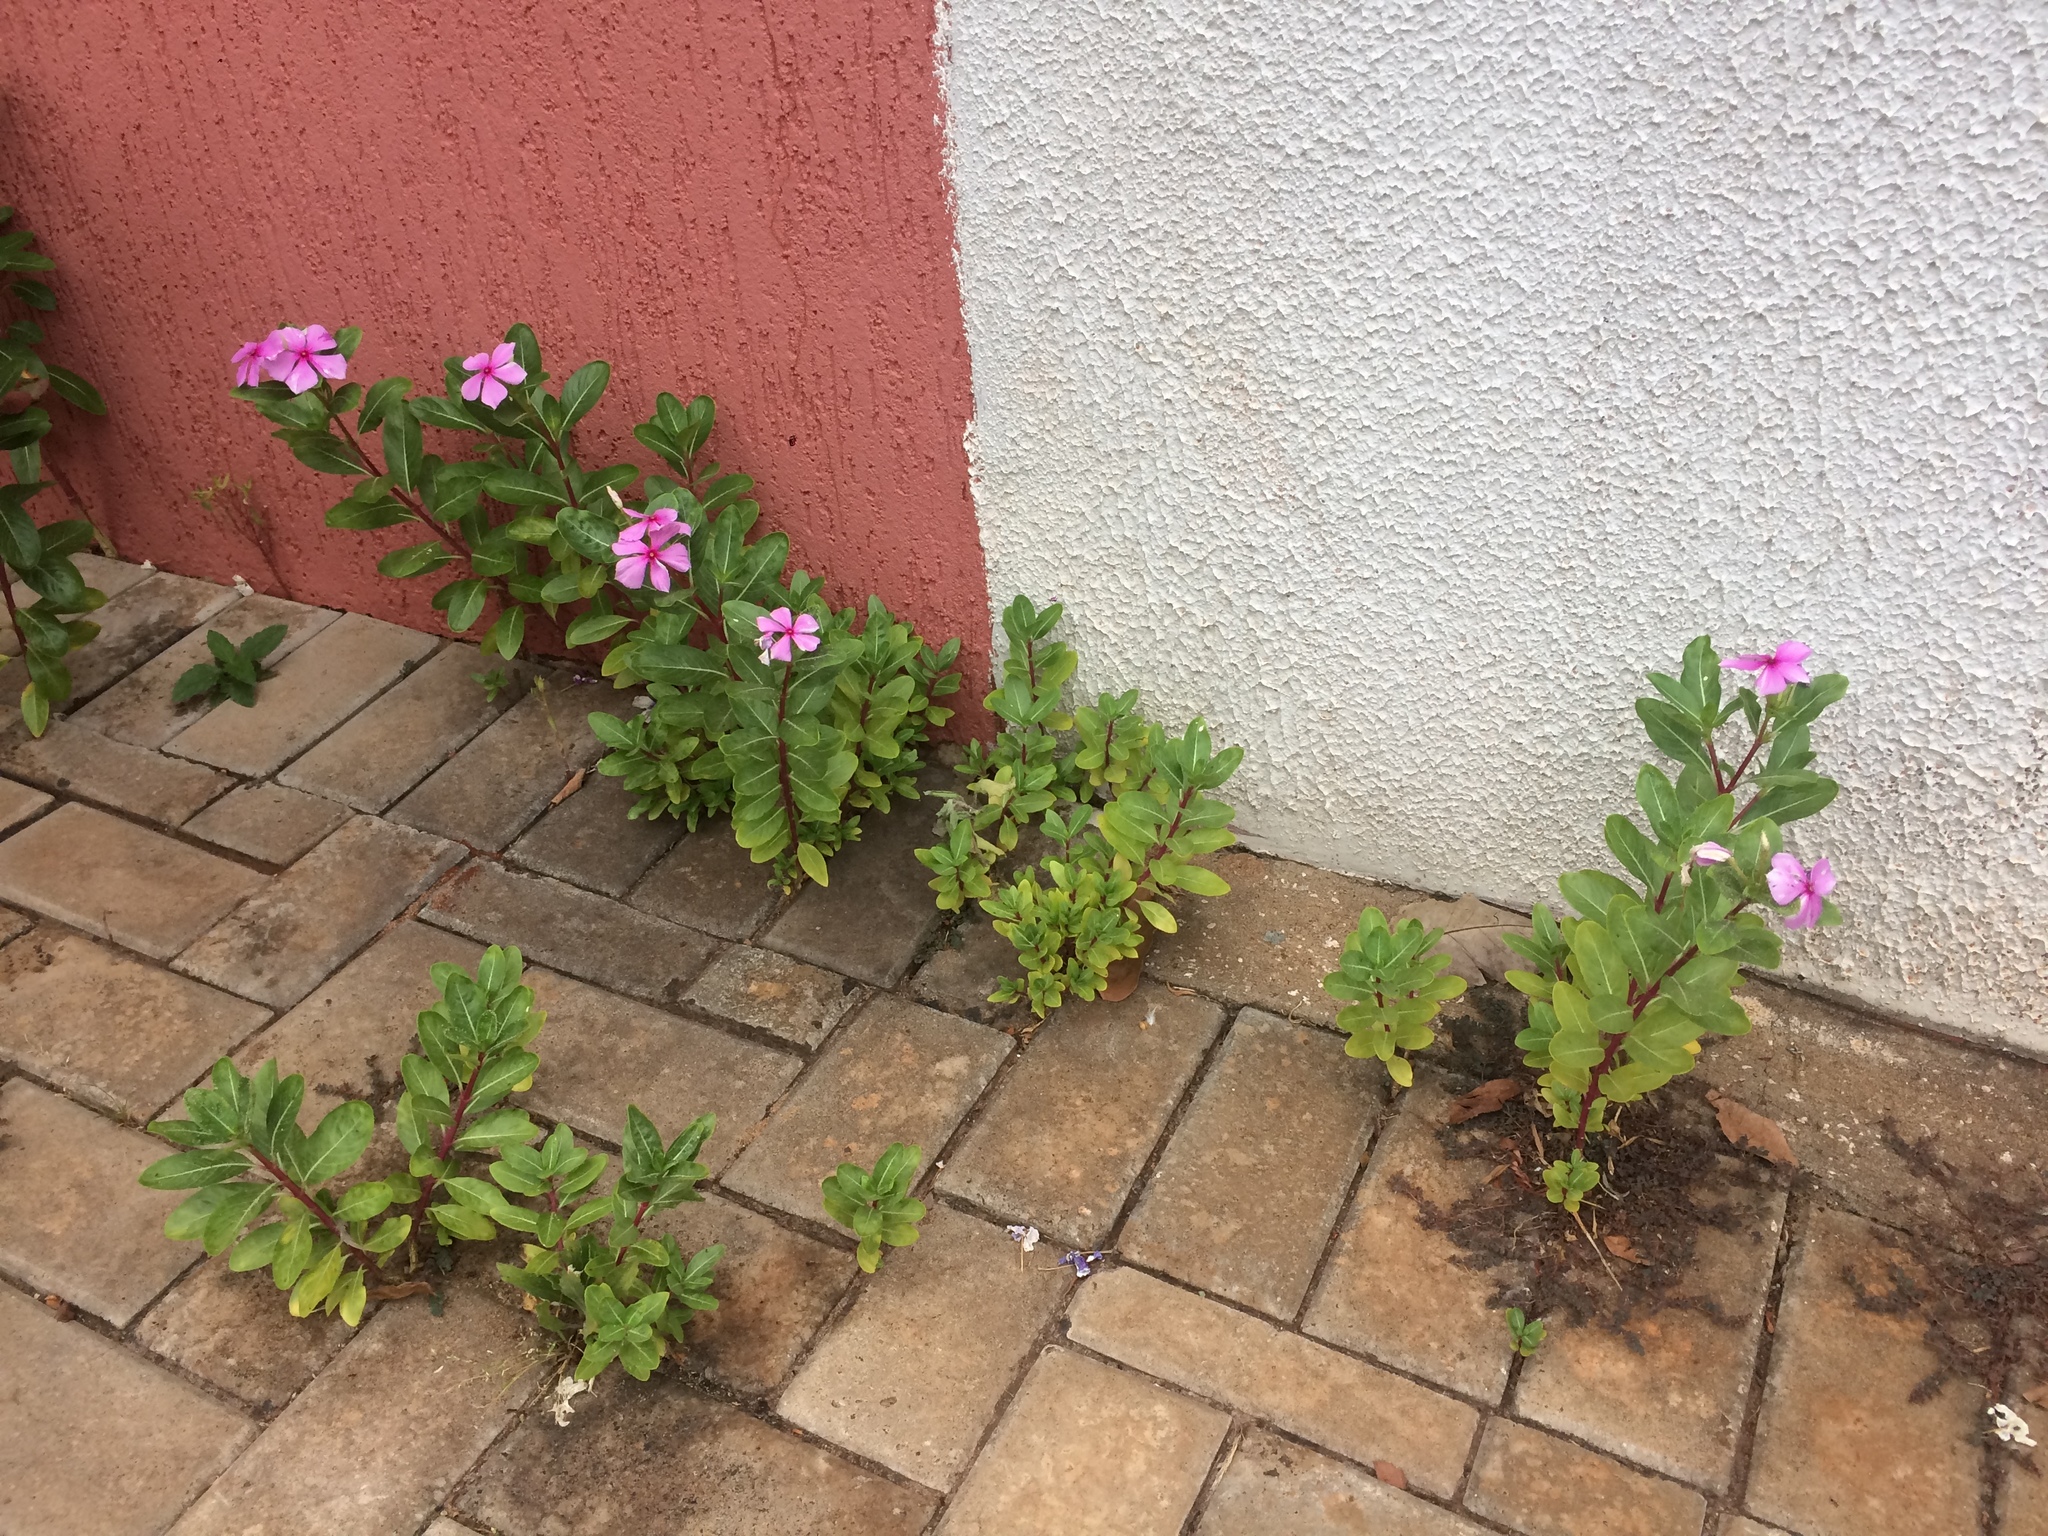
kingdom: Plantae
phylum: Tracheophyta
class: Magnoliopsida
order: Gentianales
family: Apocynaceae
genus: Catharanthus
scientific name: Catharanthus roseus
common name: Madagascar periwinkle
